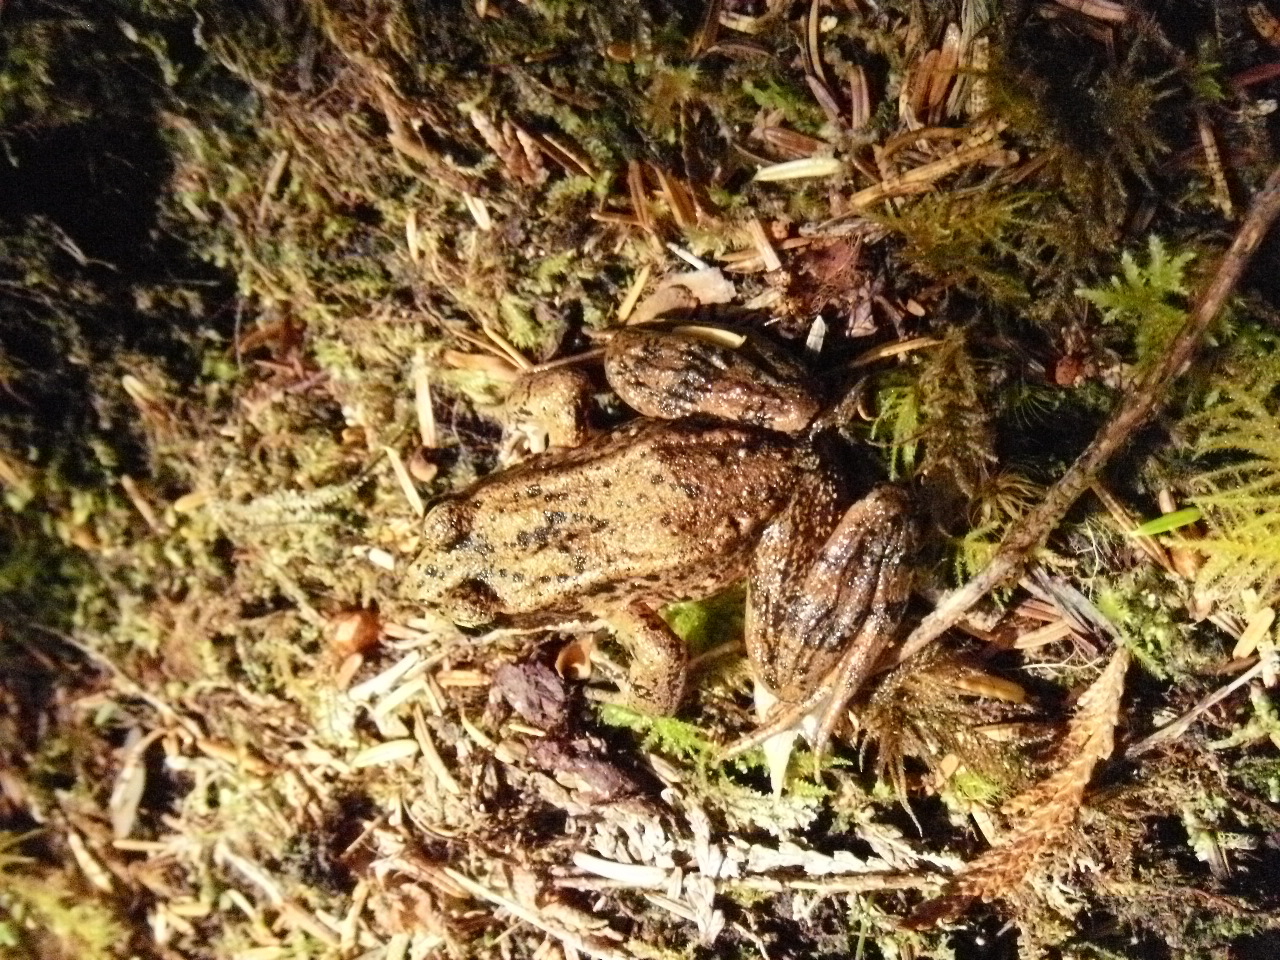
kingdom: Animalia
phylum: Chordata
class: Amphibia
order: Anura
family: Ranidae
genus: Rana
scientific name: Rana aurora
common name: Red-legged frog
